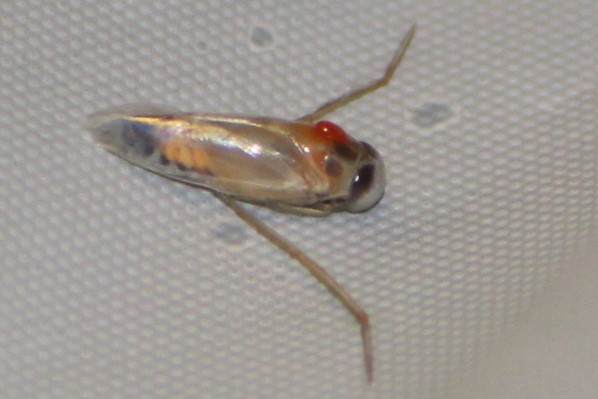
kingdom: Animalia
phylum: Arthropoda
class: Insecta
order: Hemiptera
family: Notonectidae
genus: Buenoa
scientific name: Buenoa
